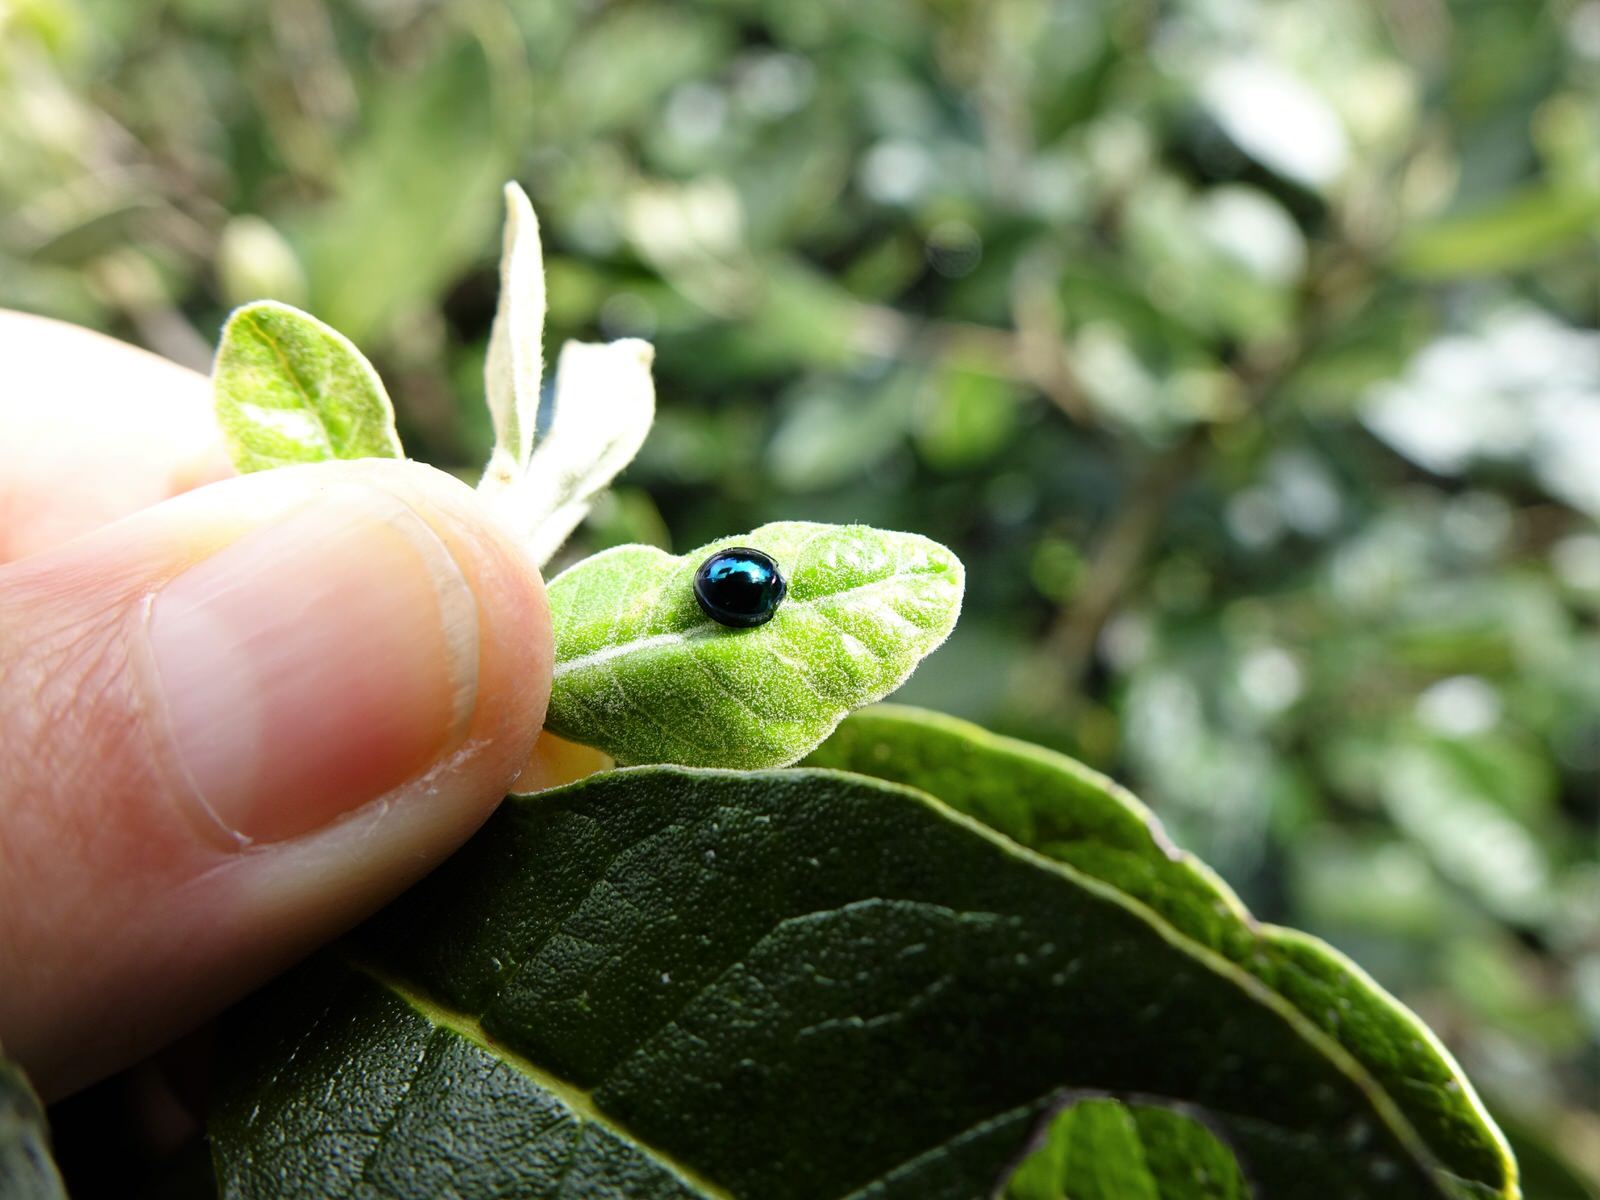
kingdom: Animalia
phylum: Arthropoda
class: Insecta
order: Coleoptera
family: Coccinellidae
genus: Halmus
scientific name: Halmus chalybeus
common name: Steel blue ladybird beetle
